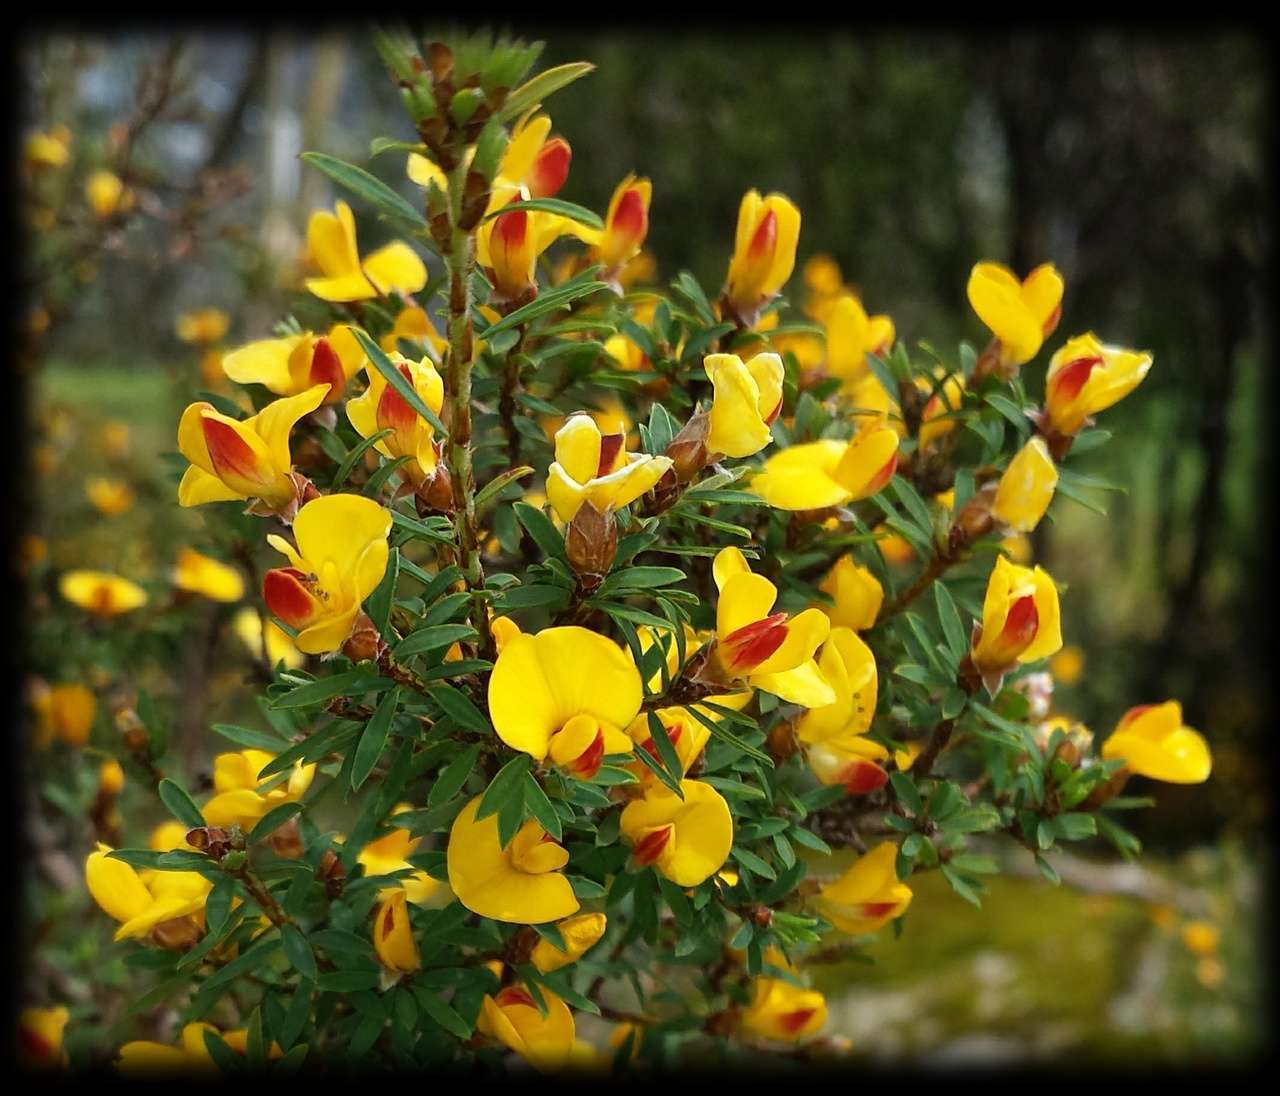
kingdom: Plantae
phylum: Tracheophyta
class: Magnoliopsida
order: Fabales
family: Fabaceae
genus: Pultenaea
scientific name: Pultenaea muelleri
